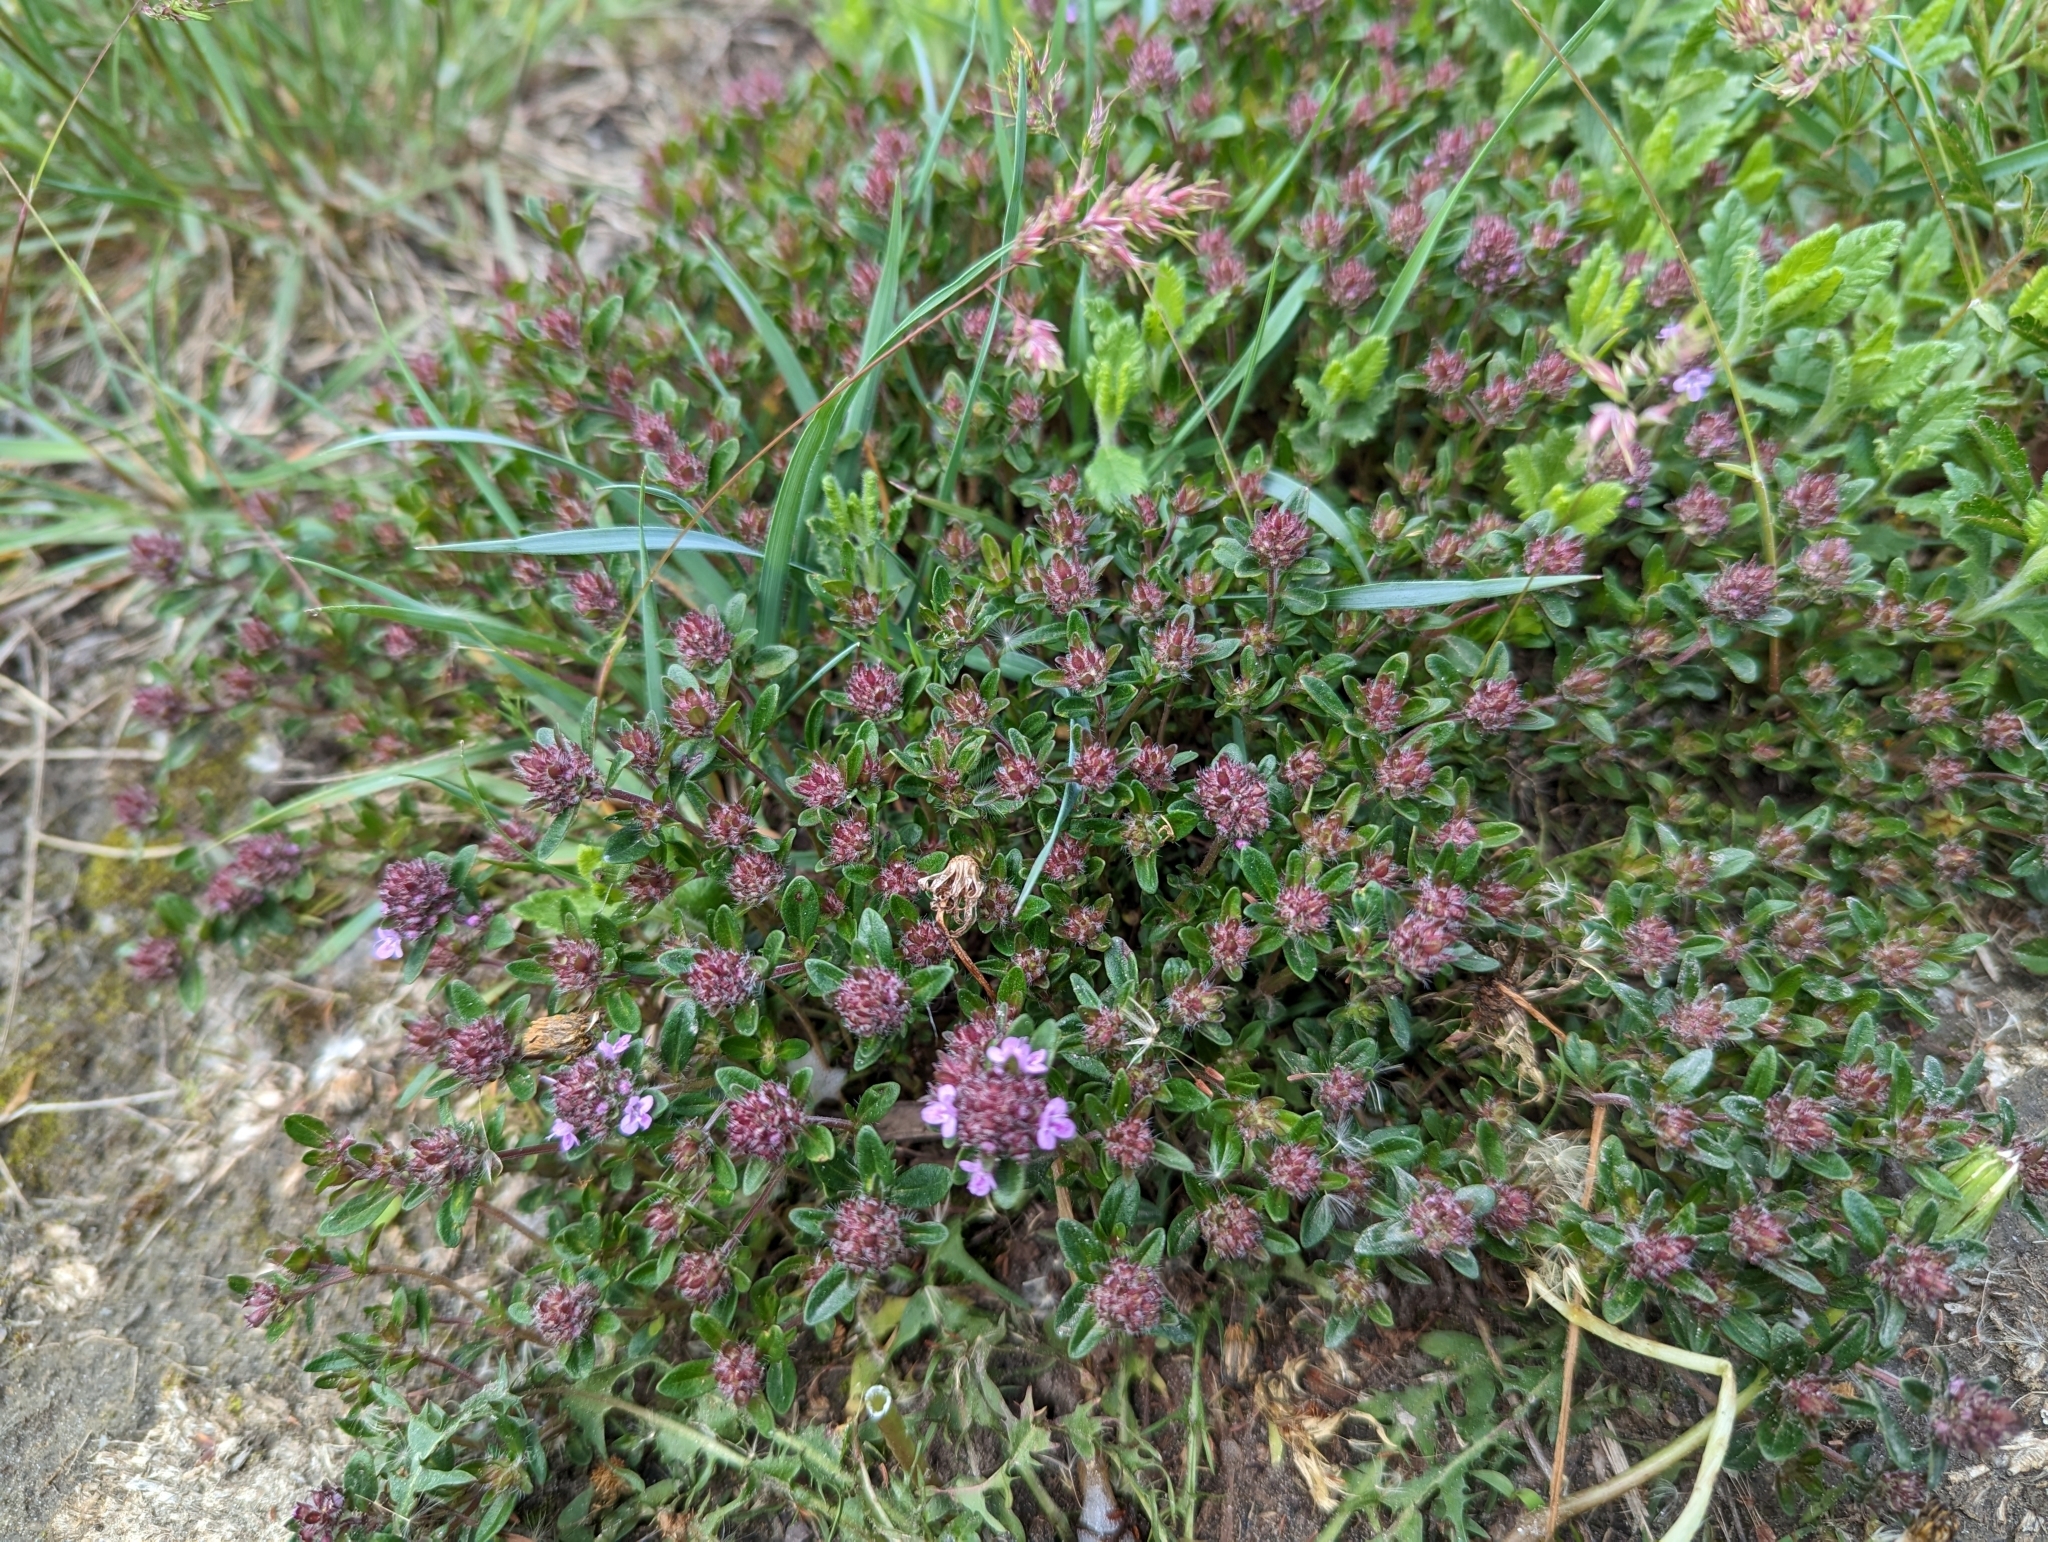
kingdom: Plantae
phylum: Tracheophyta
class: Magnoliopsida
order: Lamiales
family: Lamiaceae
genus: Thymus
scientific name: Thymus pulegioides
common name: Large thyme
